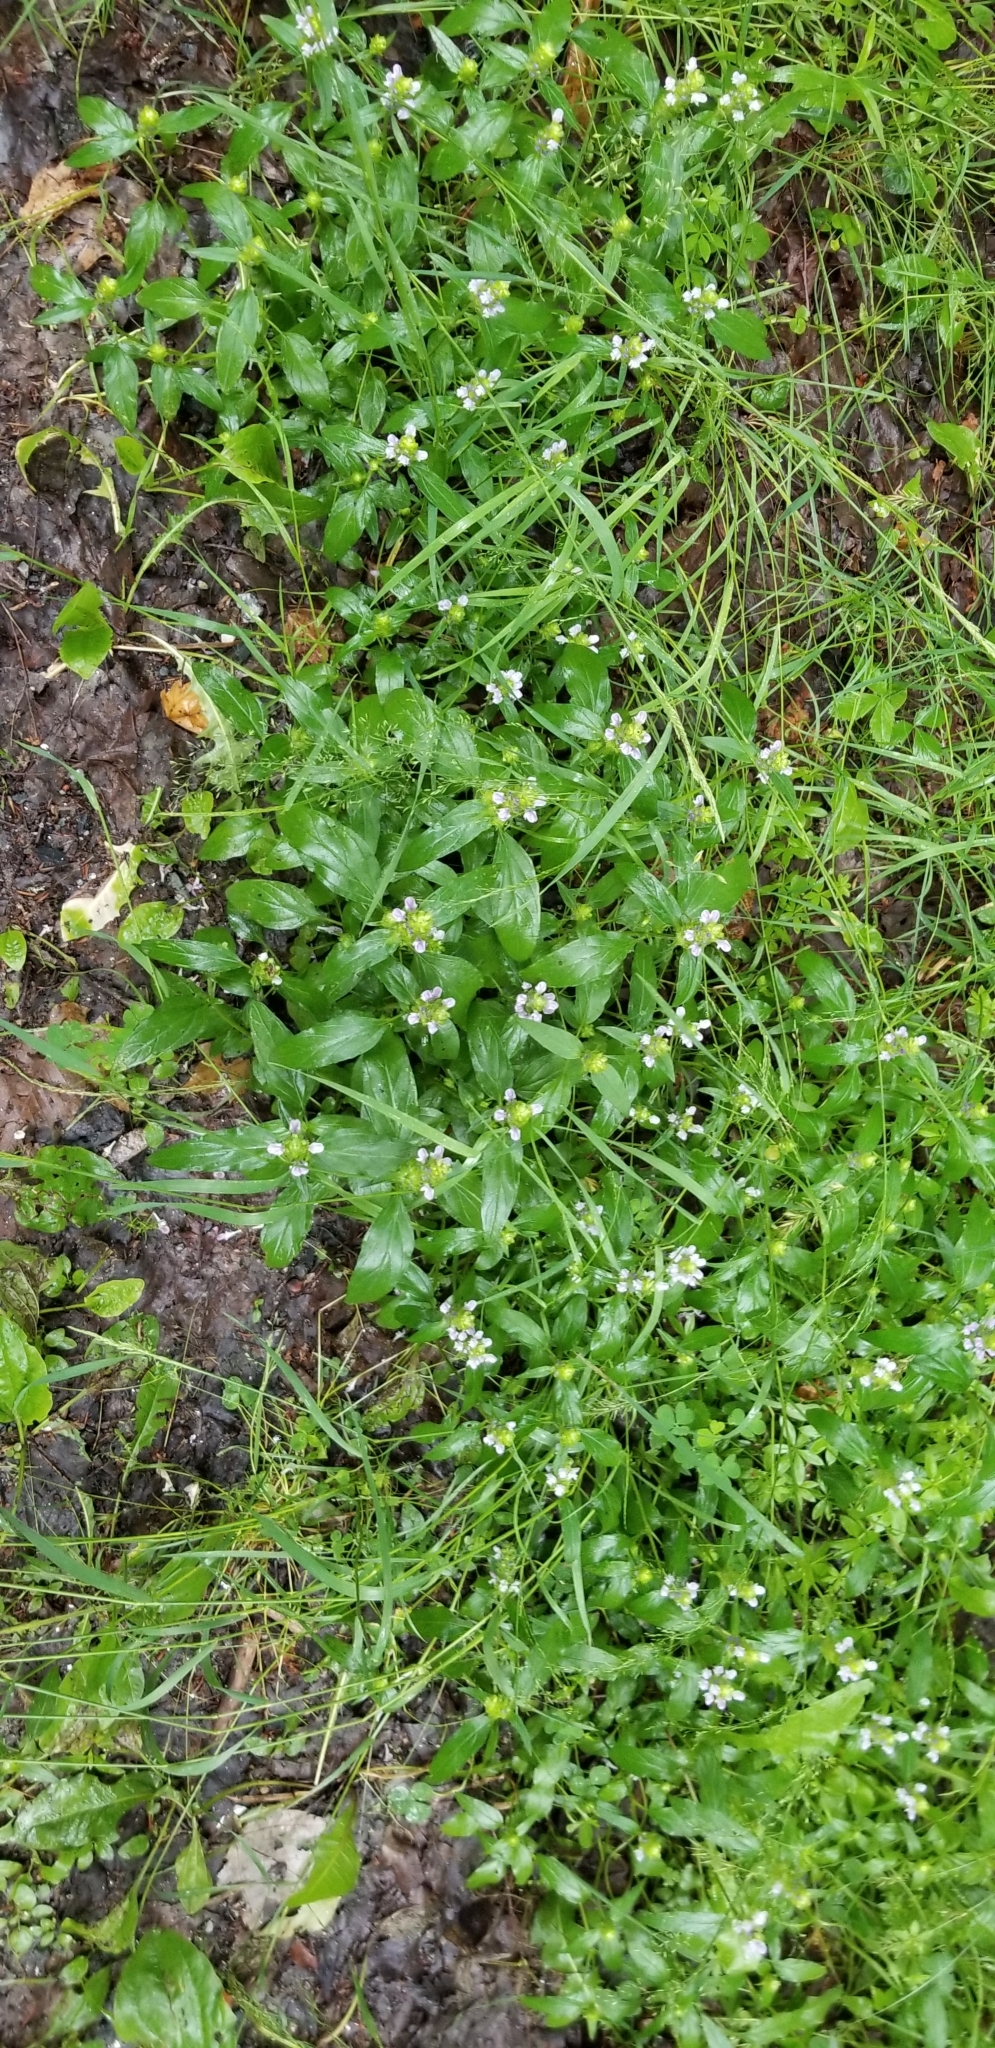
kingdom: Plantae
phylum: Tracheophyta
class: Magnoliopsida
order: Lamiales
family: Lamiaceae
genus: Prunella
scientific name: Prunella vulgaris
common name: Heal-all
